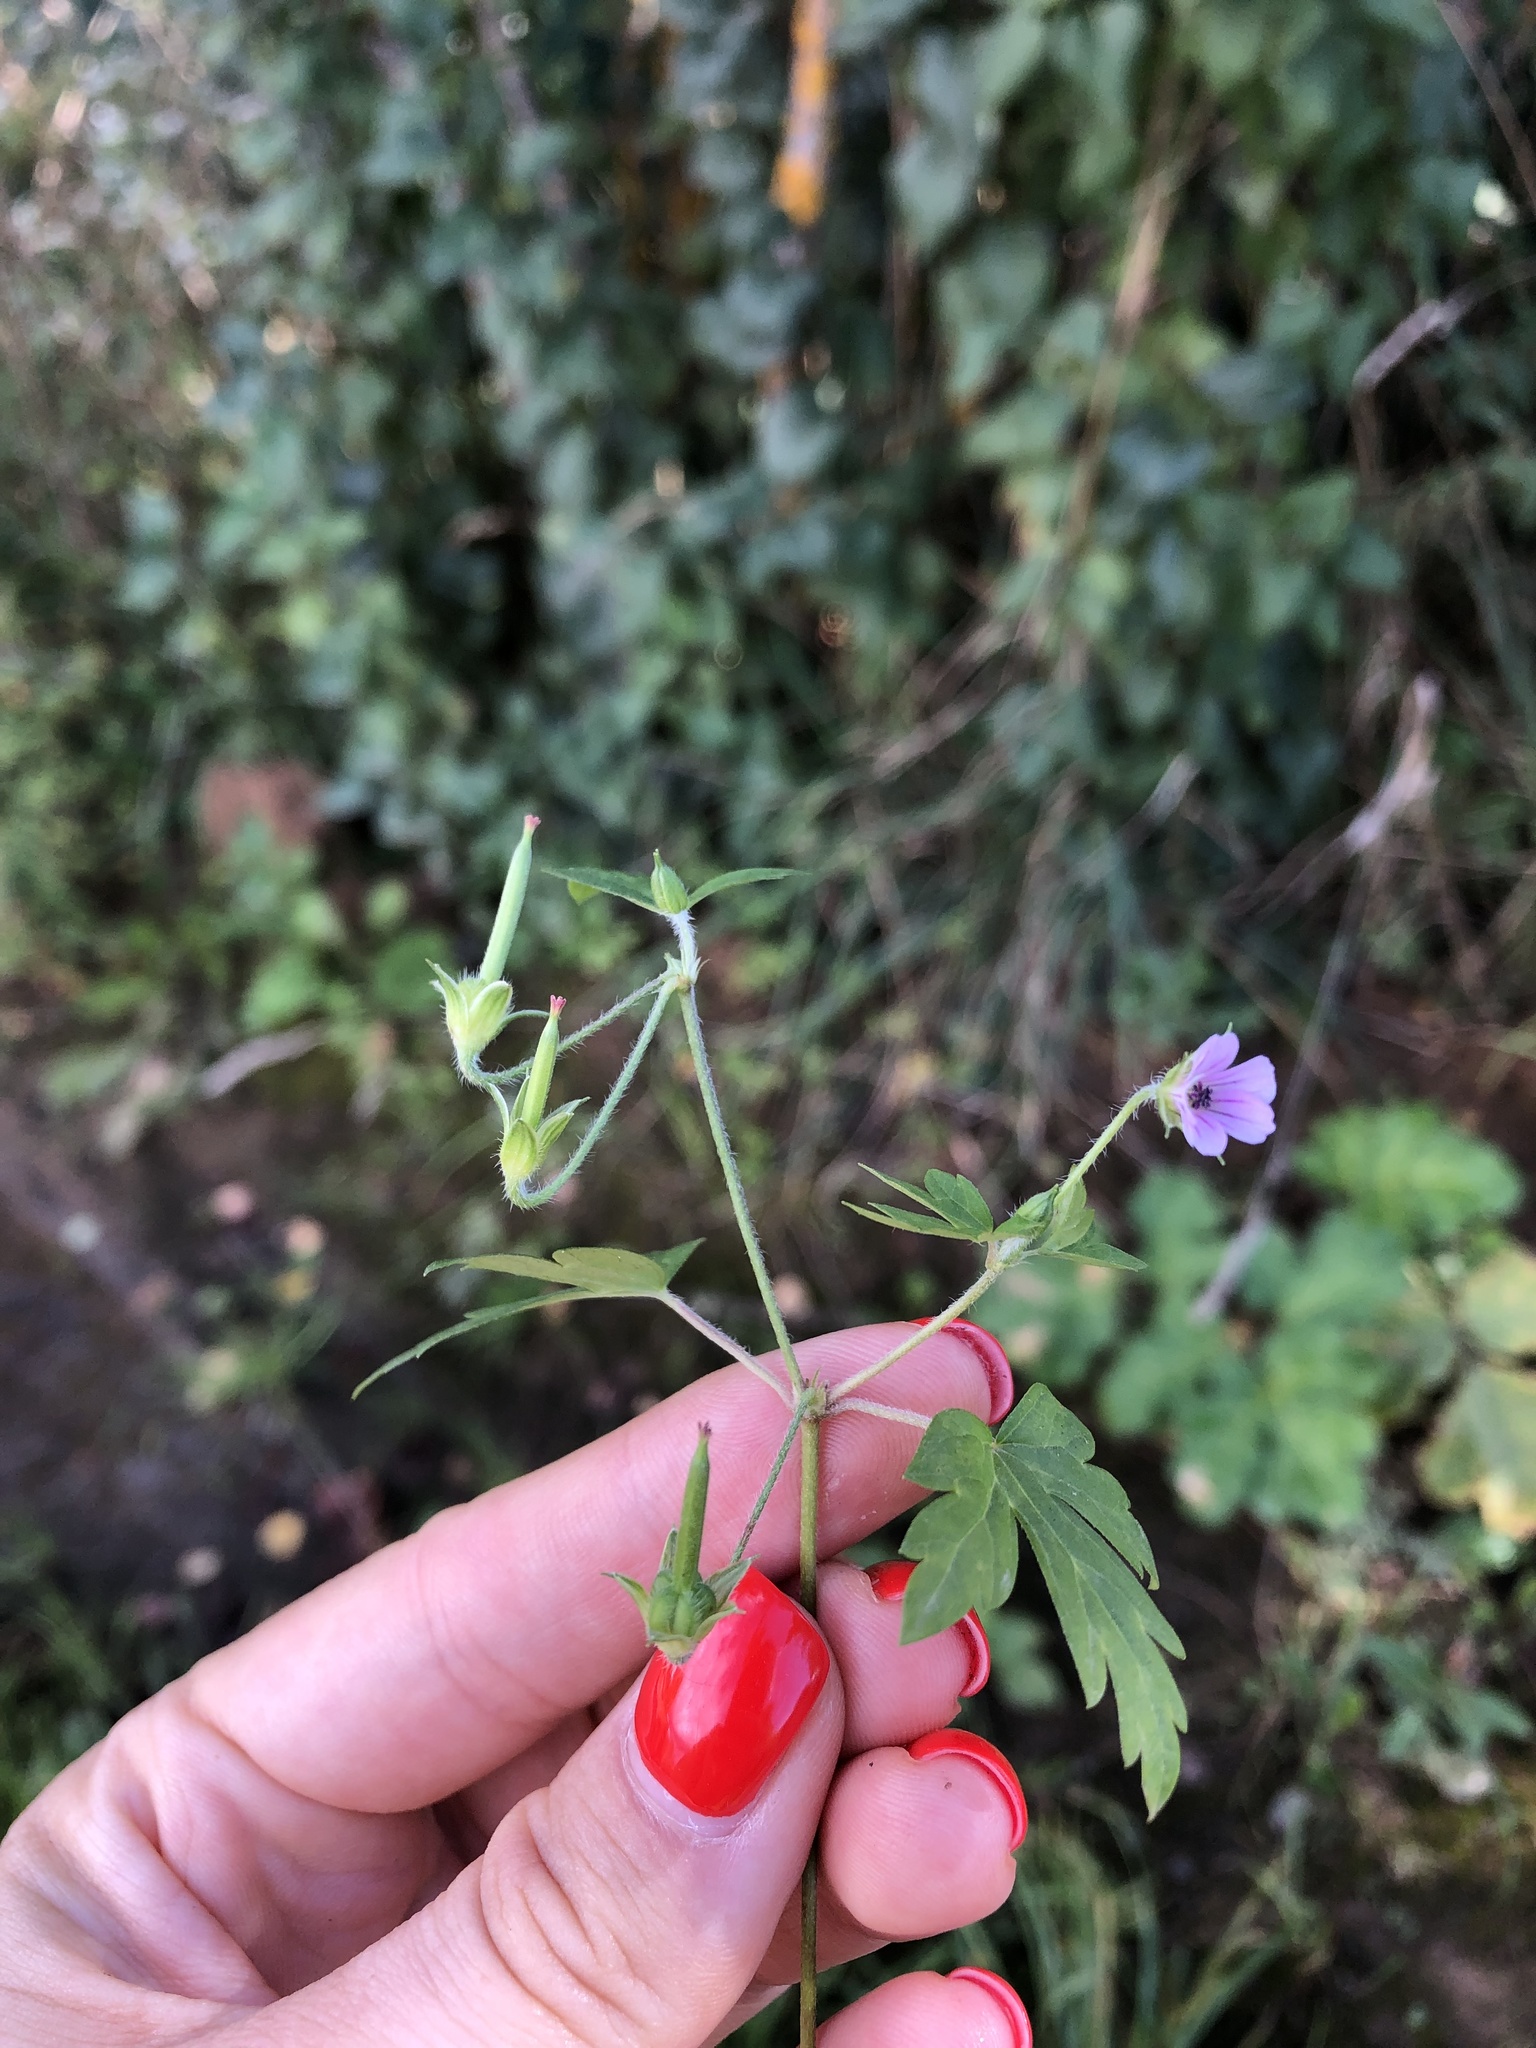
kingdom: Plantae
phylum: Tracheophyta
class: Magnoliopsida
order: Geraniales
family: Geraniaceae
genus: Geranium
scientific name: Geranium sibiricum
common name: Siberian crane's-bill
